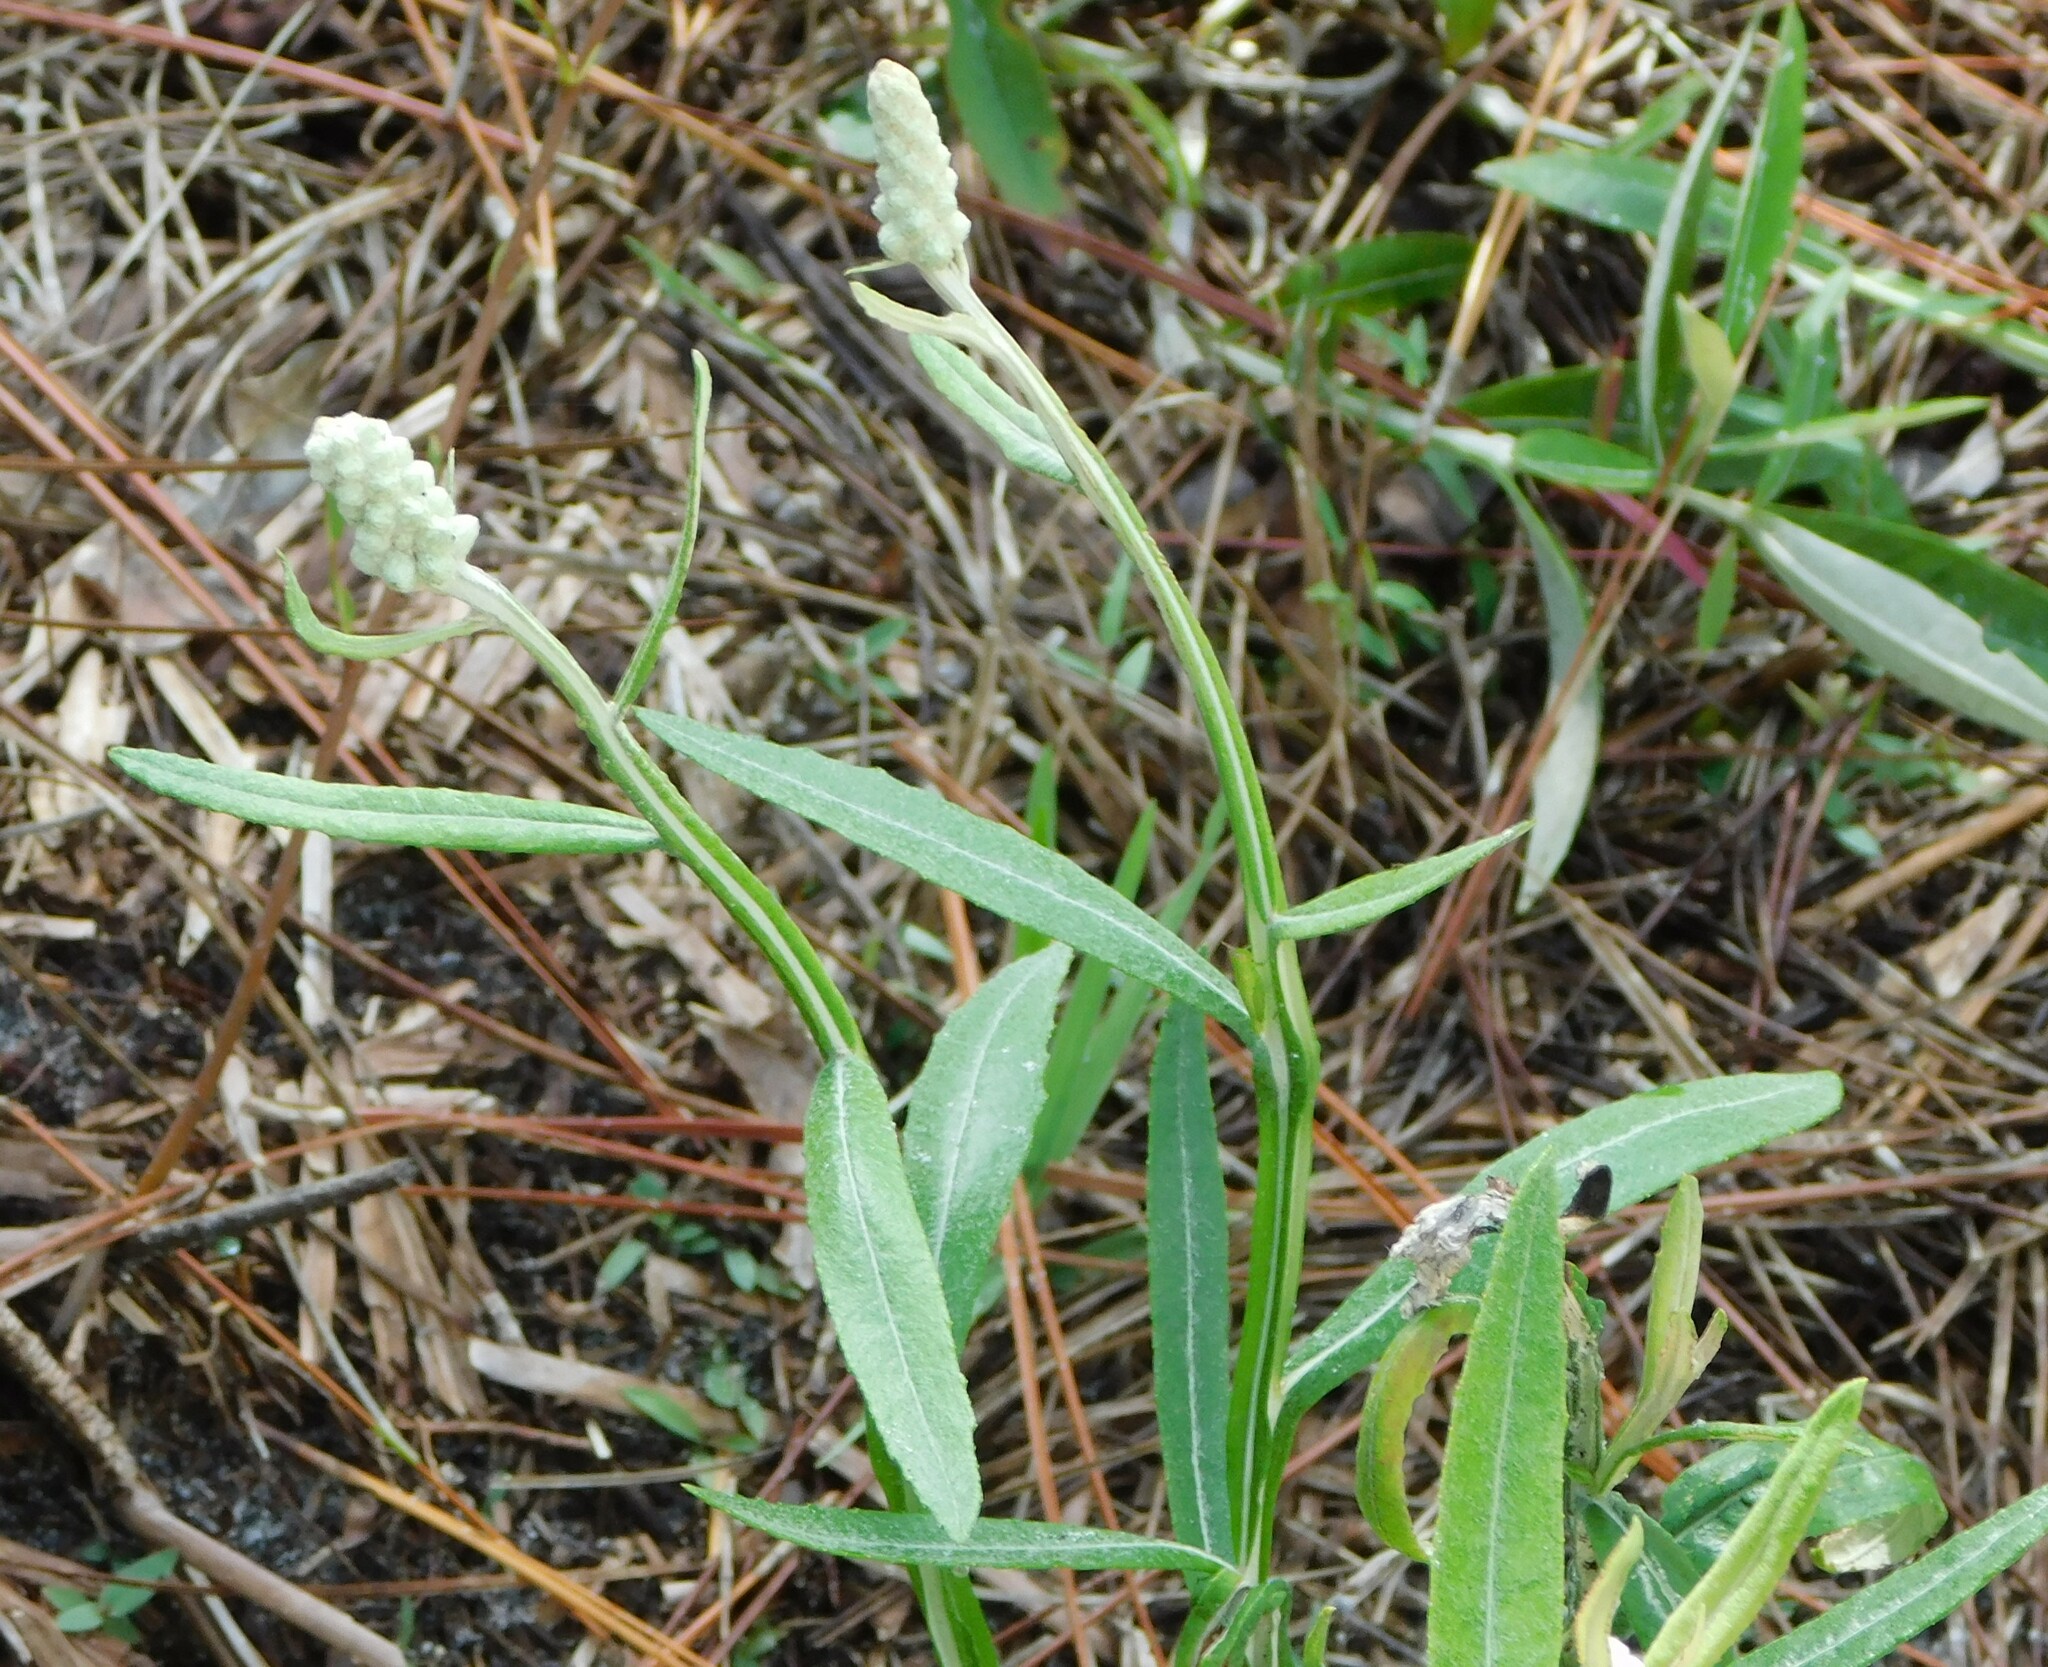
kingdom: Plantae
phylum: Tracheophyta
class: Magnoliopsida
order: Asterales
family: Asteraceae
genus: Pterocaulon
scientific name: Pterocaulon pycnostachyum
